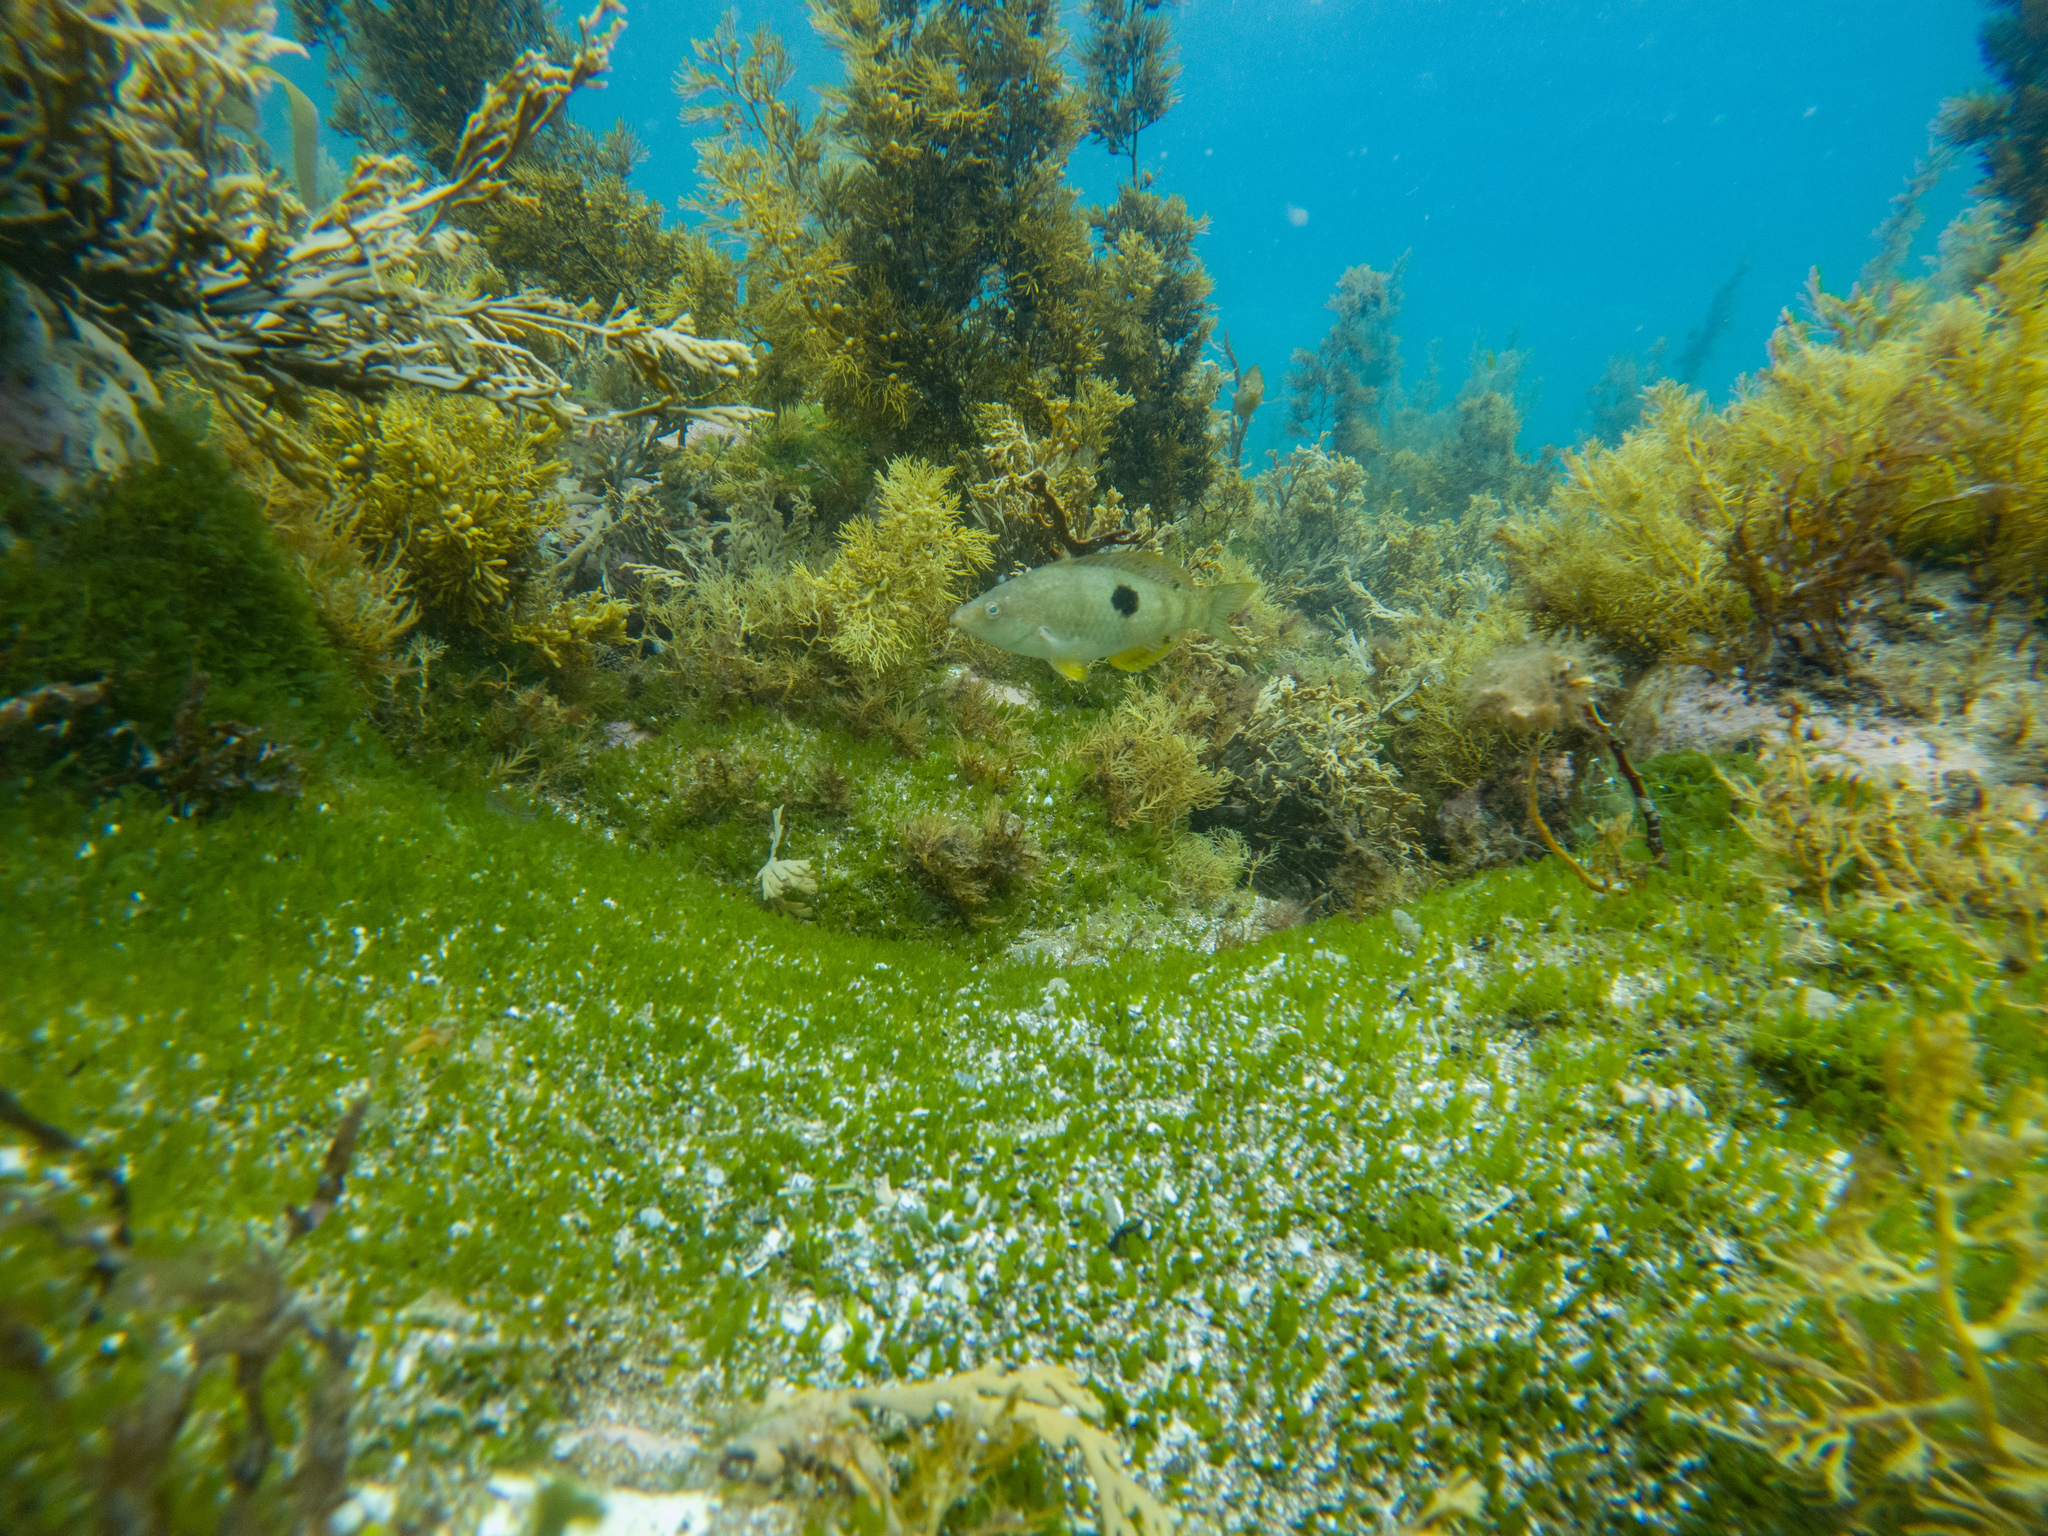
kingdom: Animalia
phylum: Chordata
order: Perciformes
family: Labridae
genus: Notolabrus
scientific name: Notolabrus celidotus
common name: Spotty
